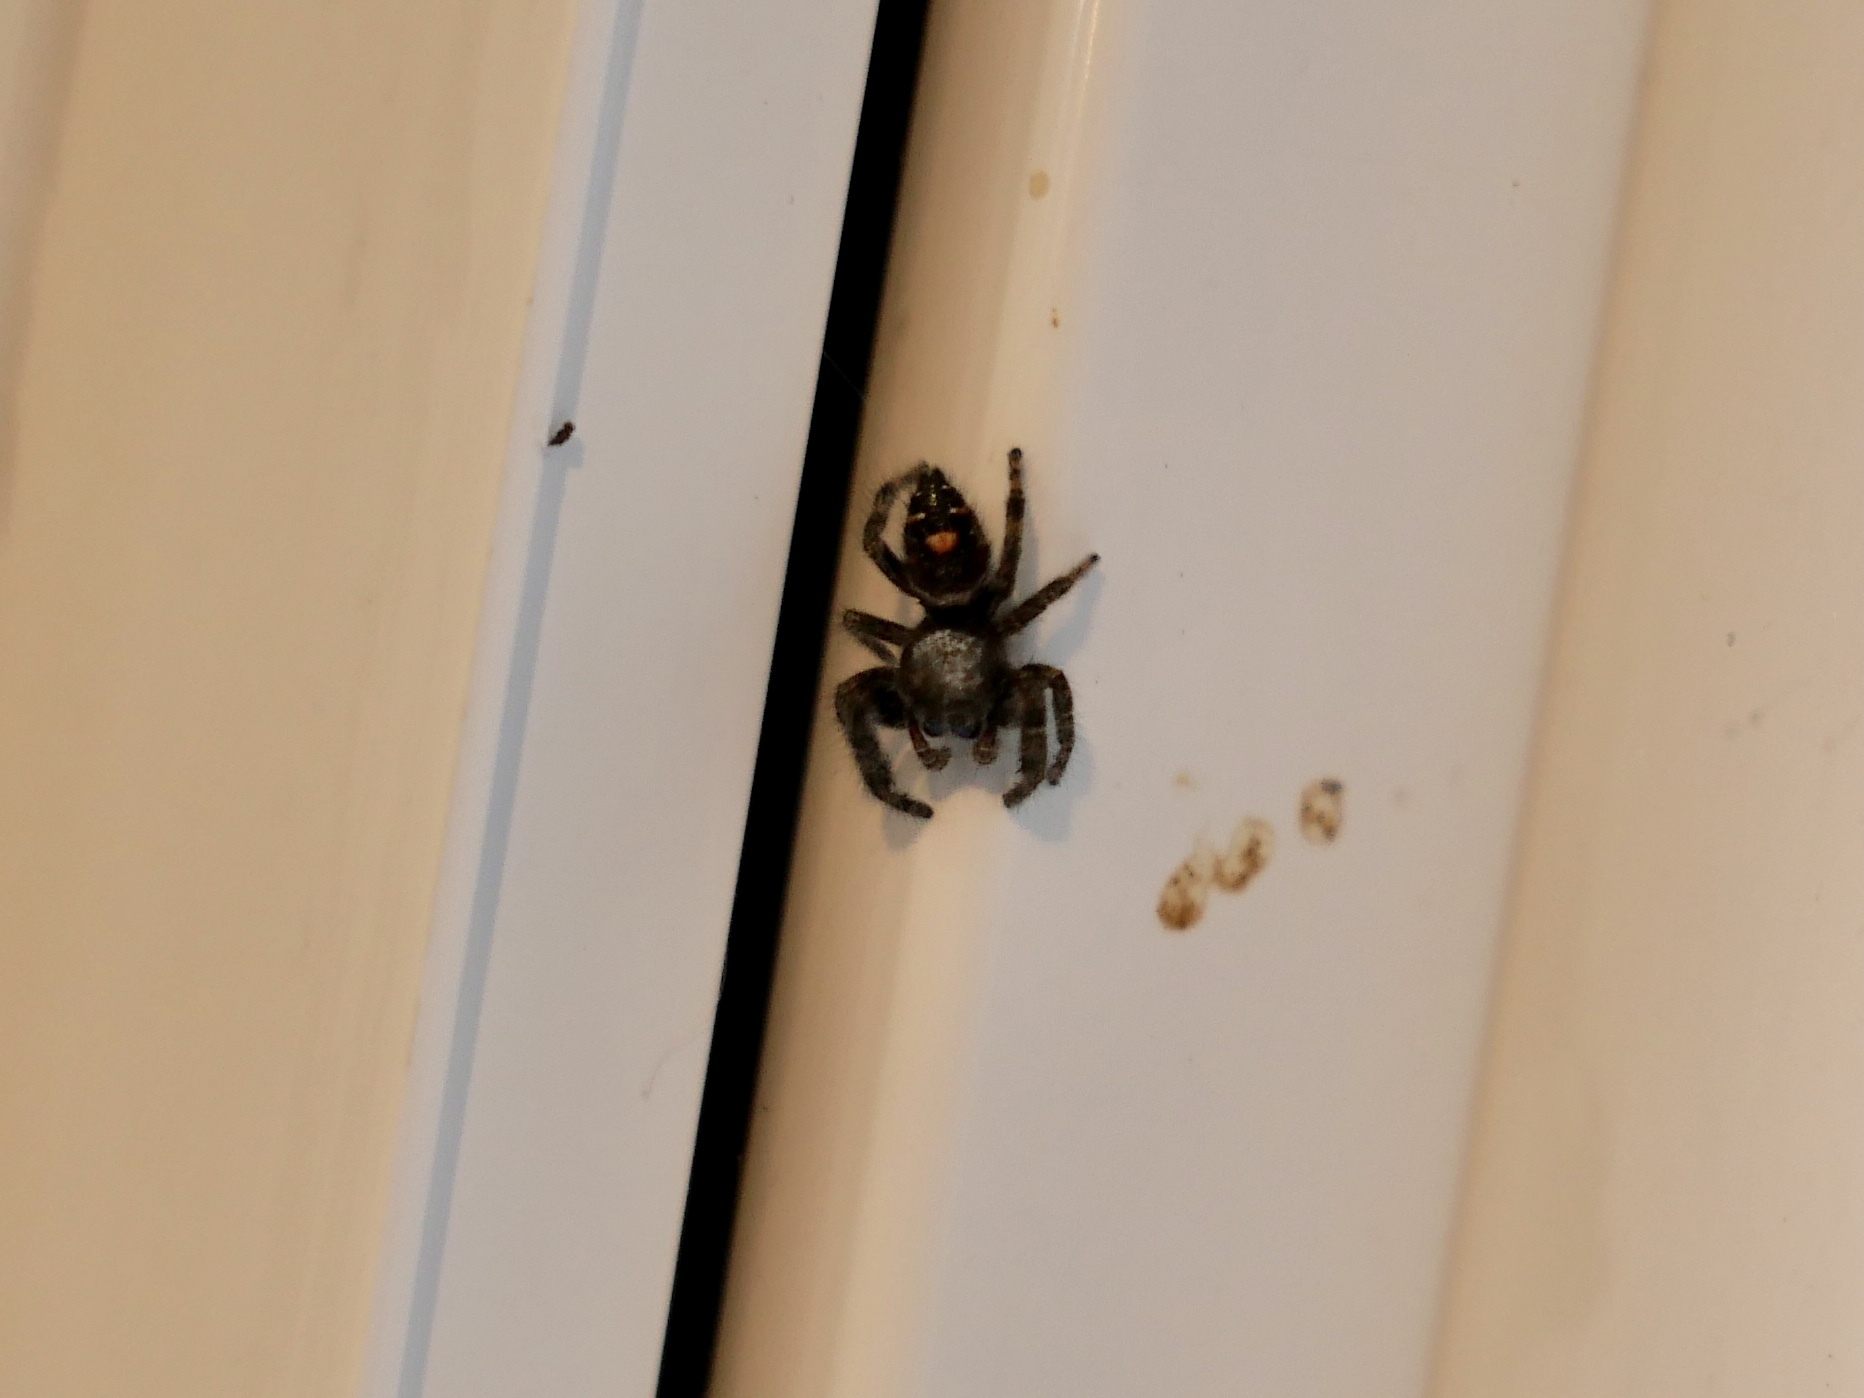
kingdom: Animalia
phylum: Arthropoda
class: Arachnida
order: Araneae
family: Salticidae
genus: Phidippus
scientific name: Phidippus audax
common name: Bold jumper
